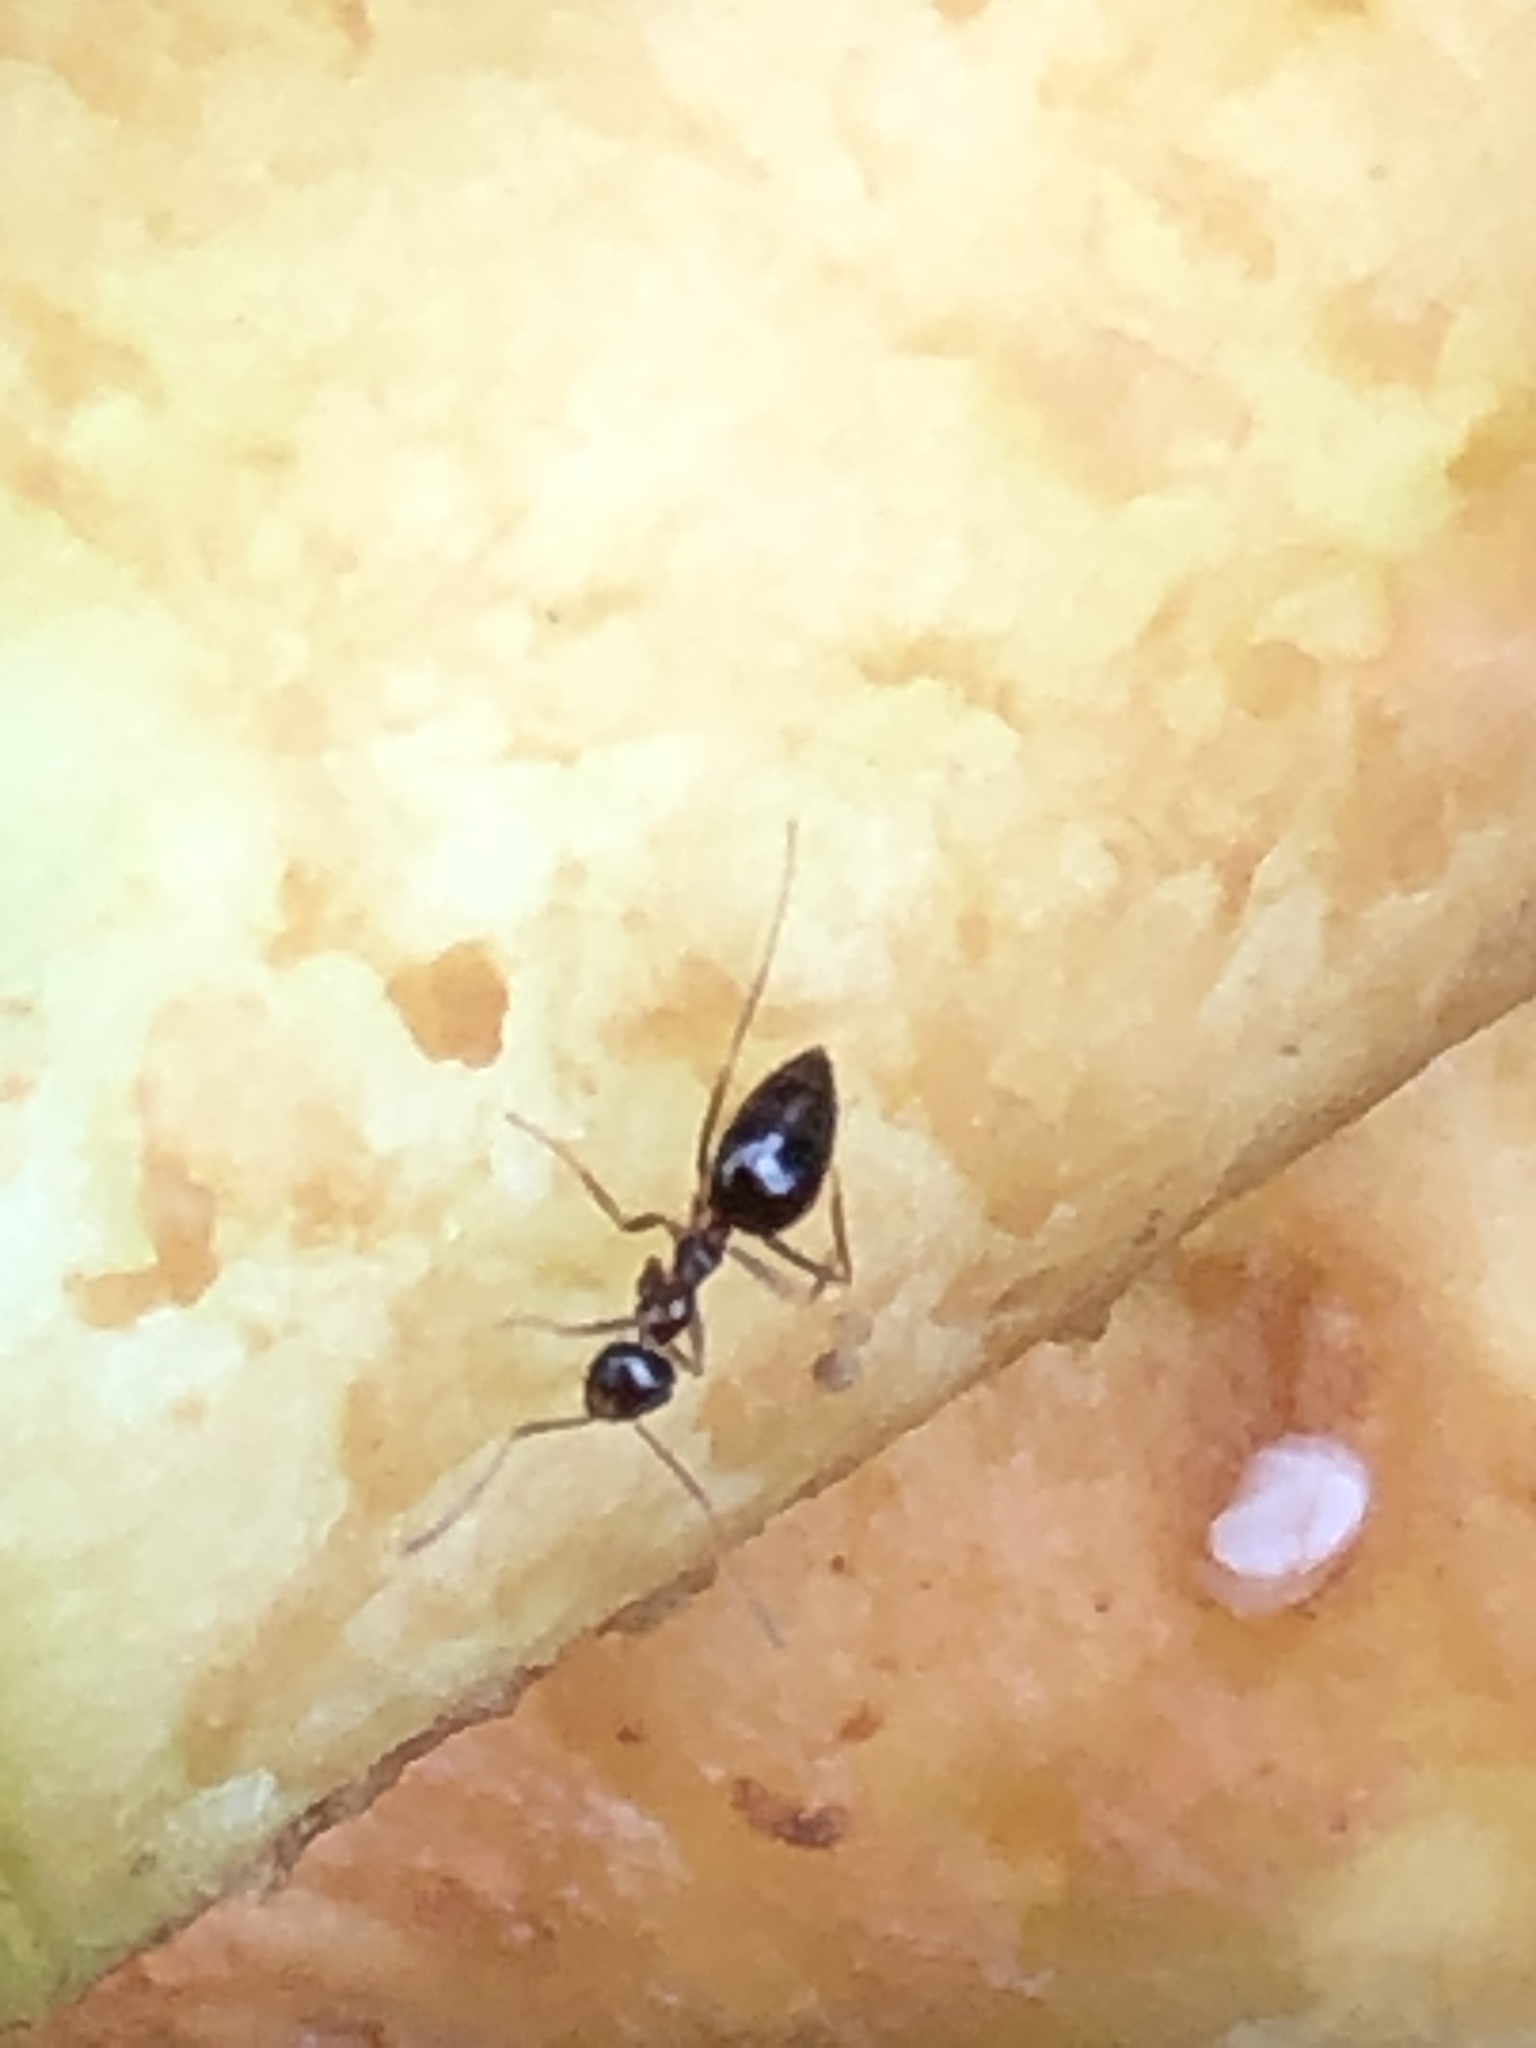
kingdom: Animalia
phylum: Arthropoda
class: Insecta
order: Hymenoptera
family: Formicidae
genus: Prenolepis
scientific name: Prenolepis imparis
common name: Small honey ant
